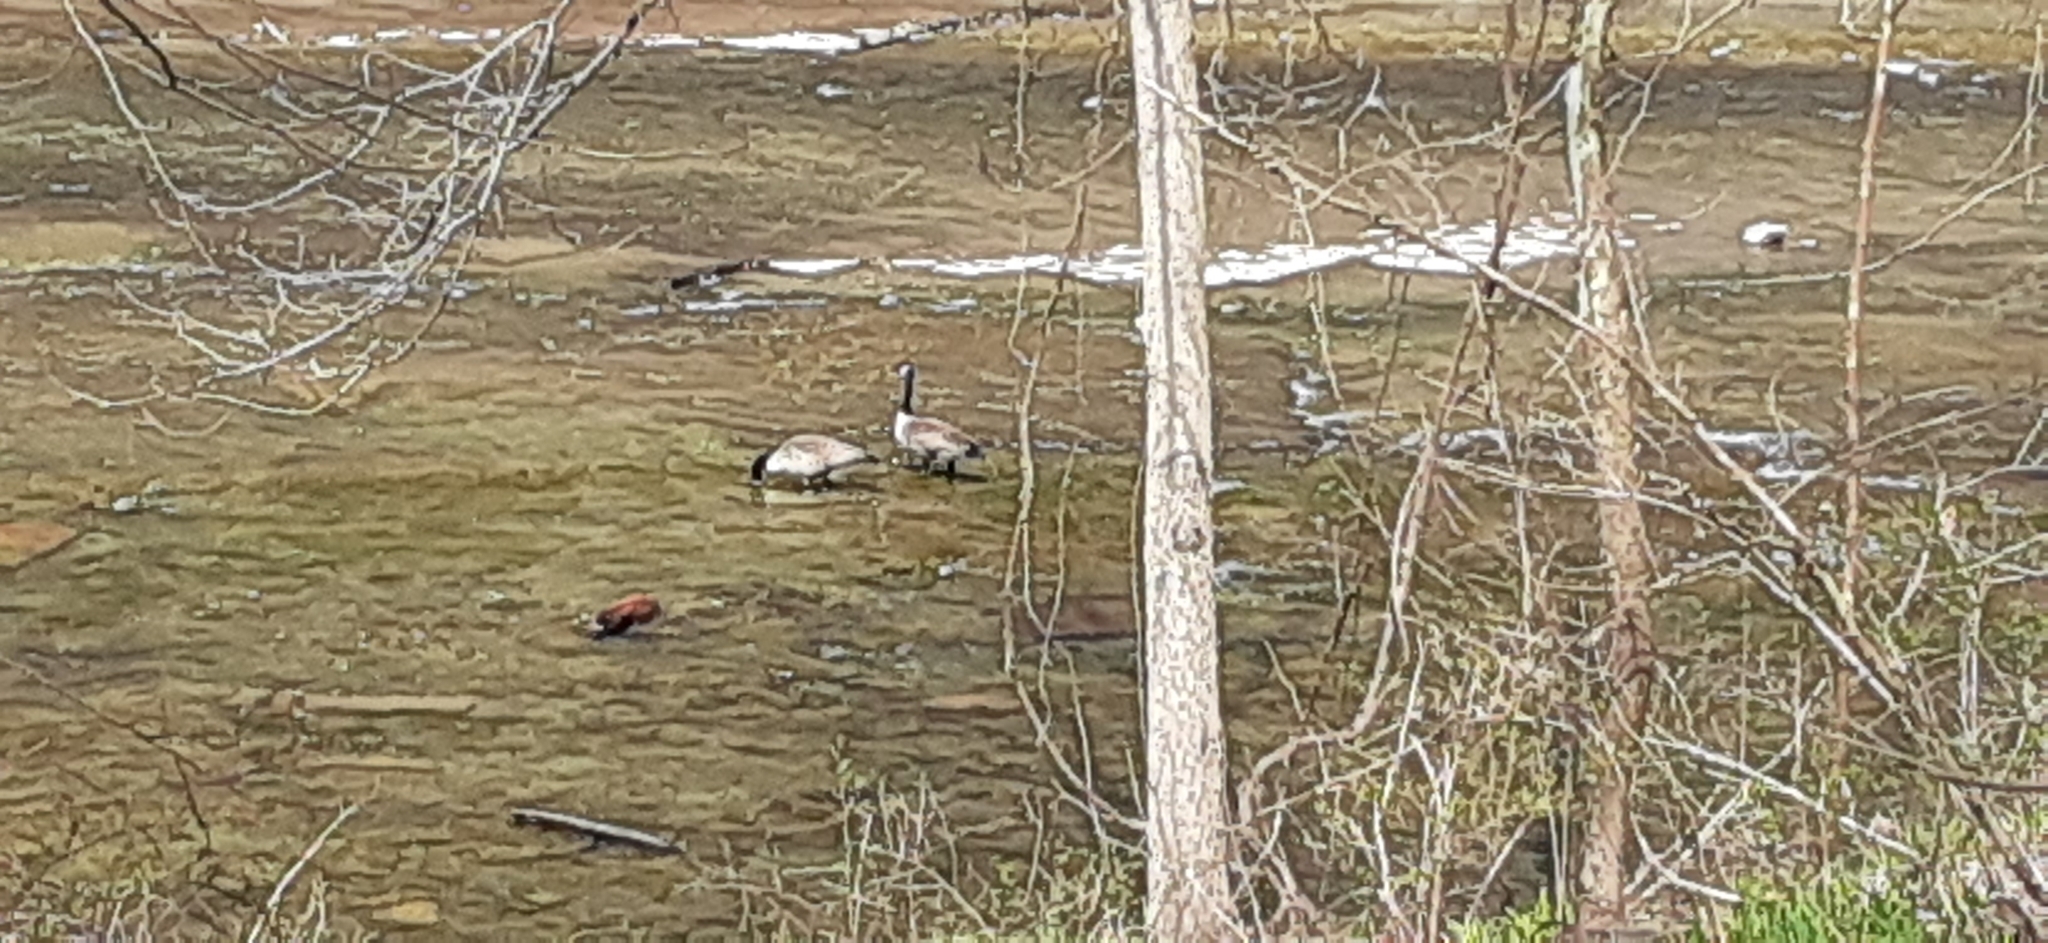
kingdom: Animalia
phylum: Chordata
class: Aves
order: Anseriformes
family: Anatidae
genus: Branta
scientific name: Branta canadensis
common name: Canada goose
